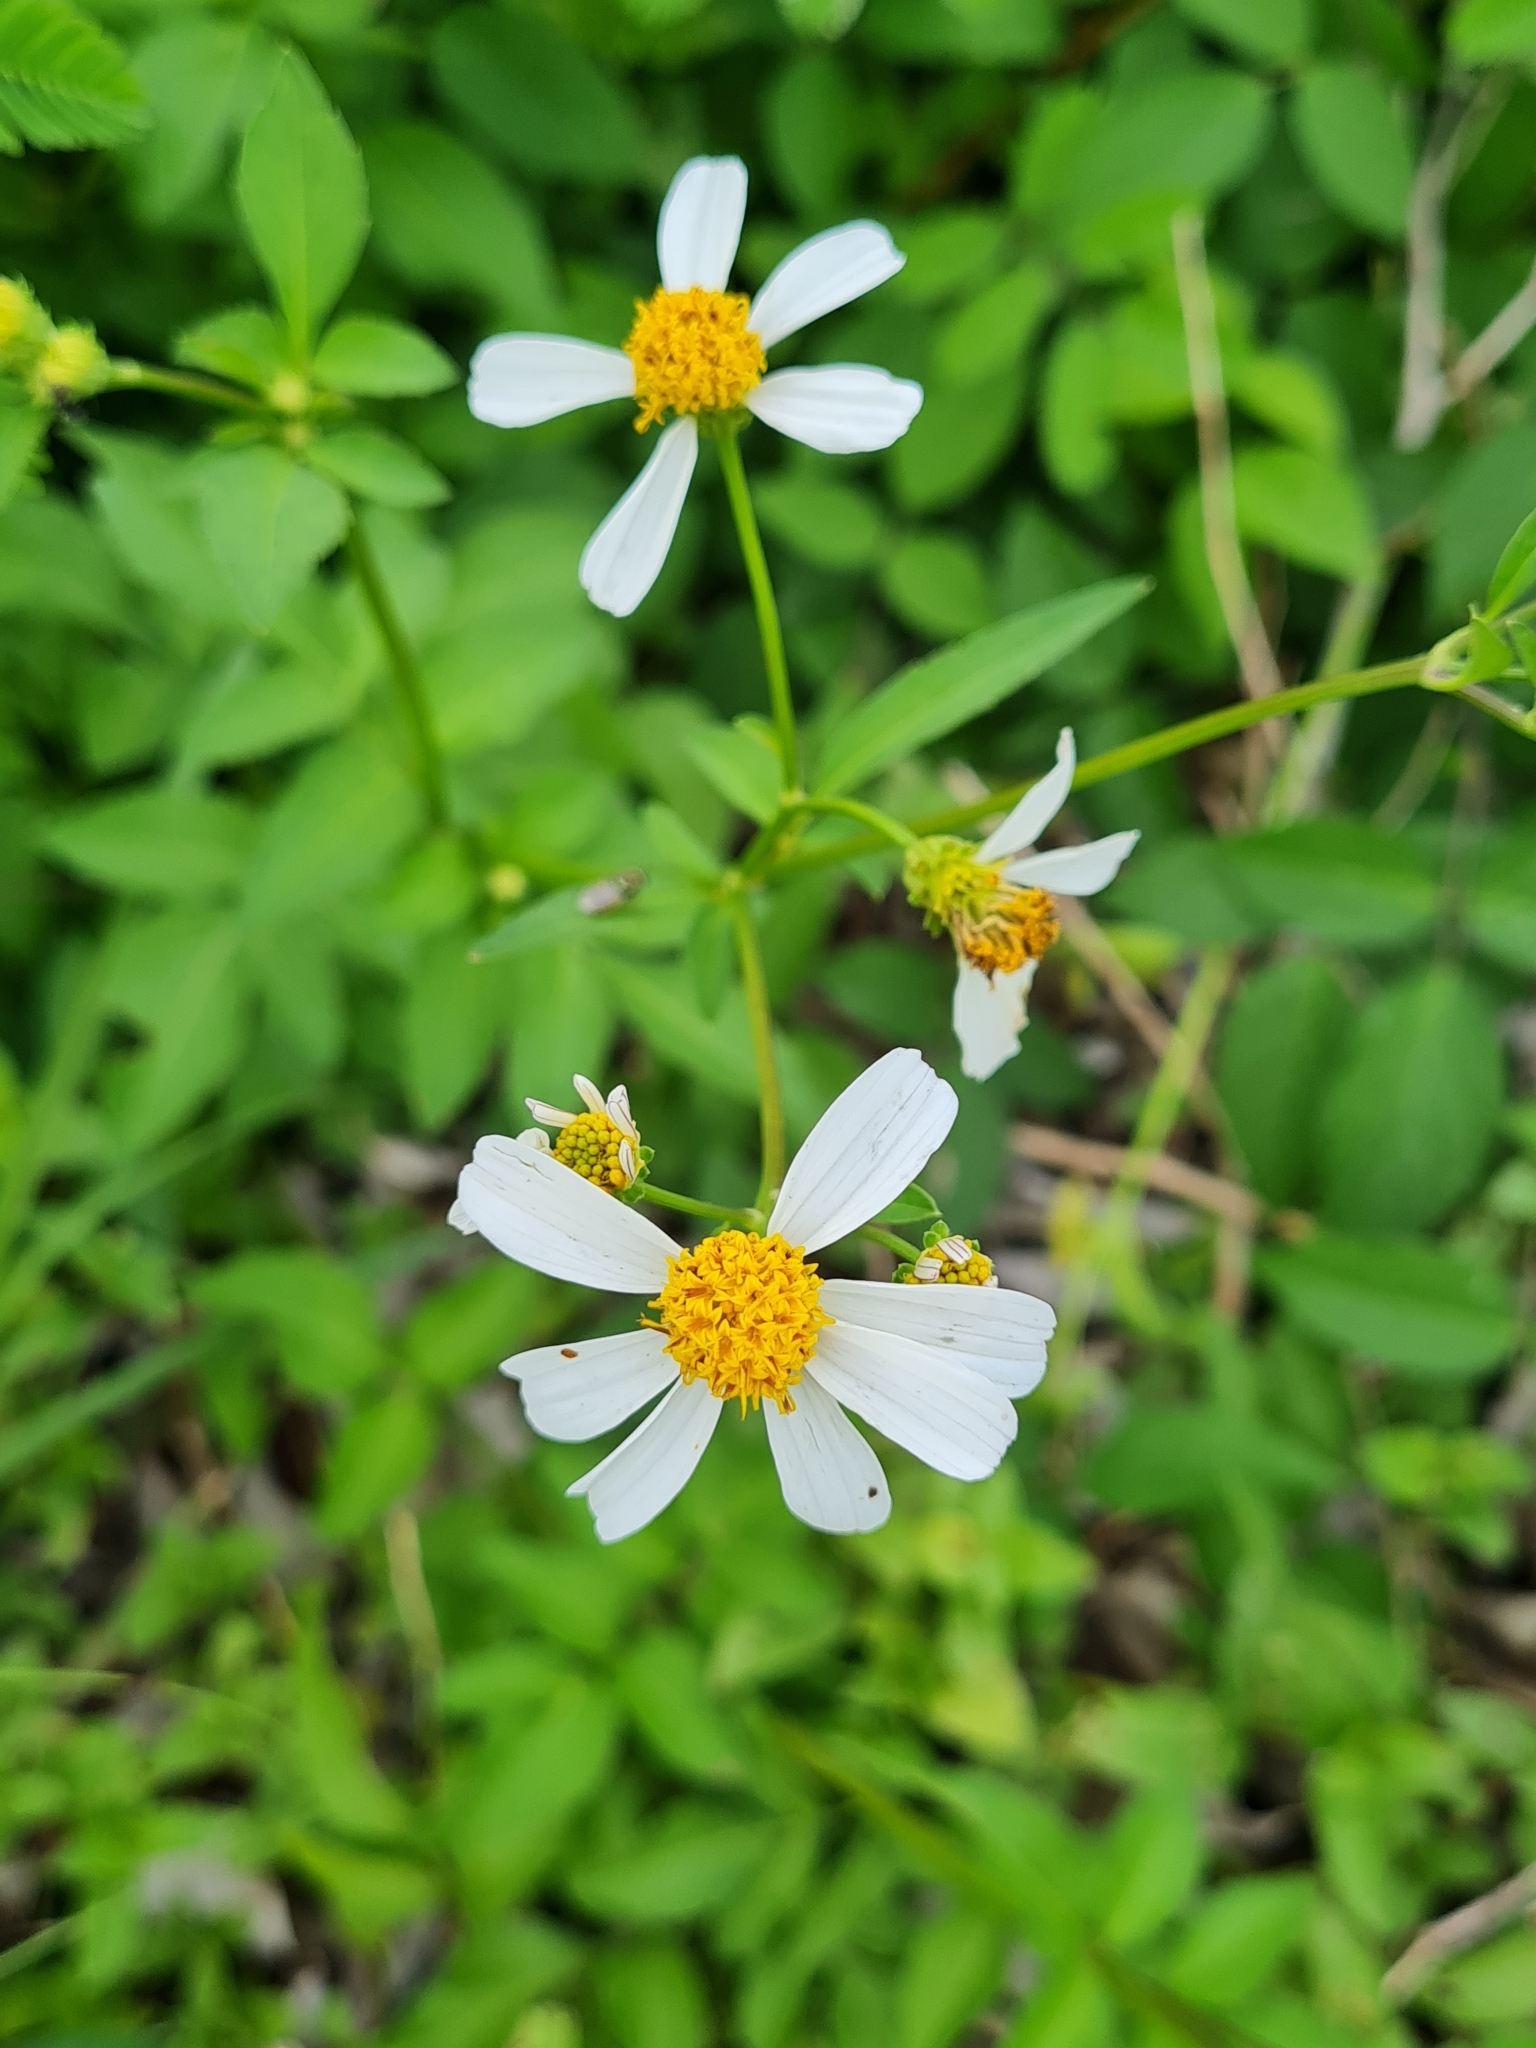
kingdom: Plantae
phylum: Tracheophyta
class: Magnoliopsida
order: Asterales
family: Asteraceae
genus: Bidens
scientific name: Bidens alba
